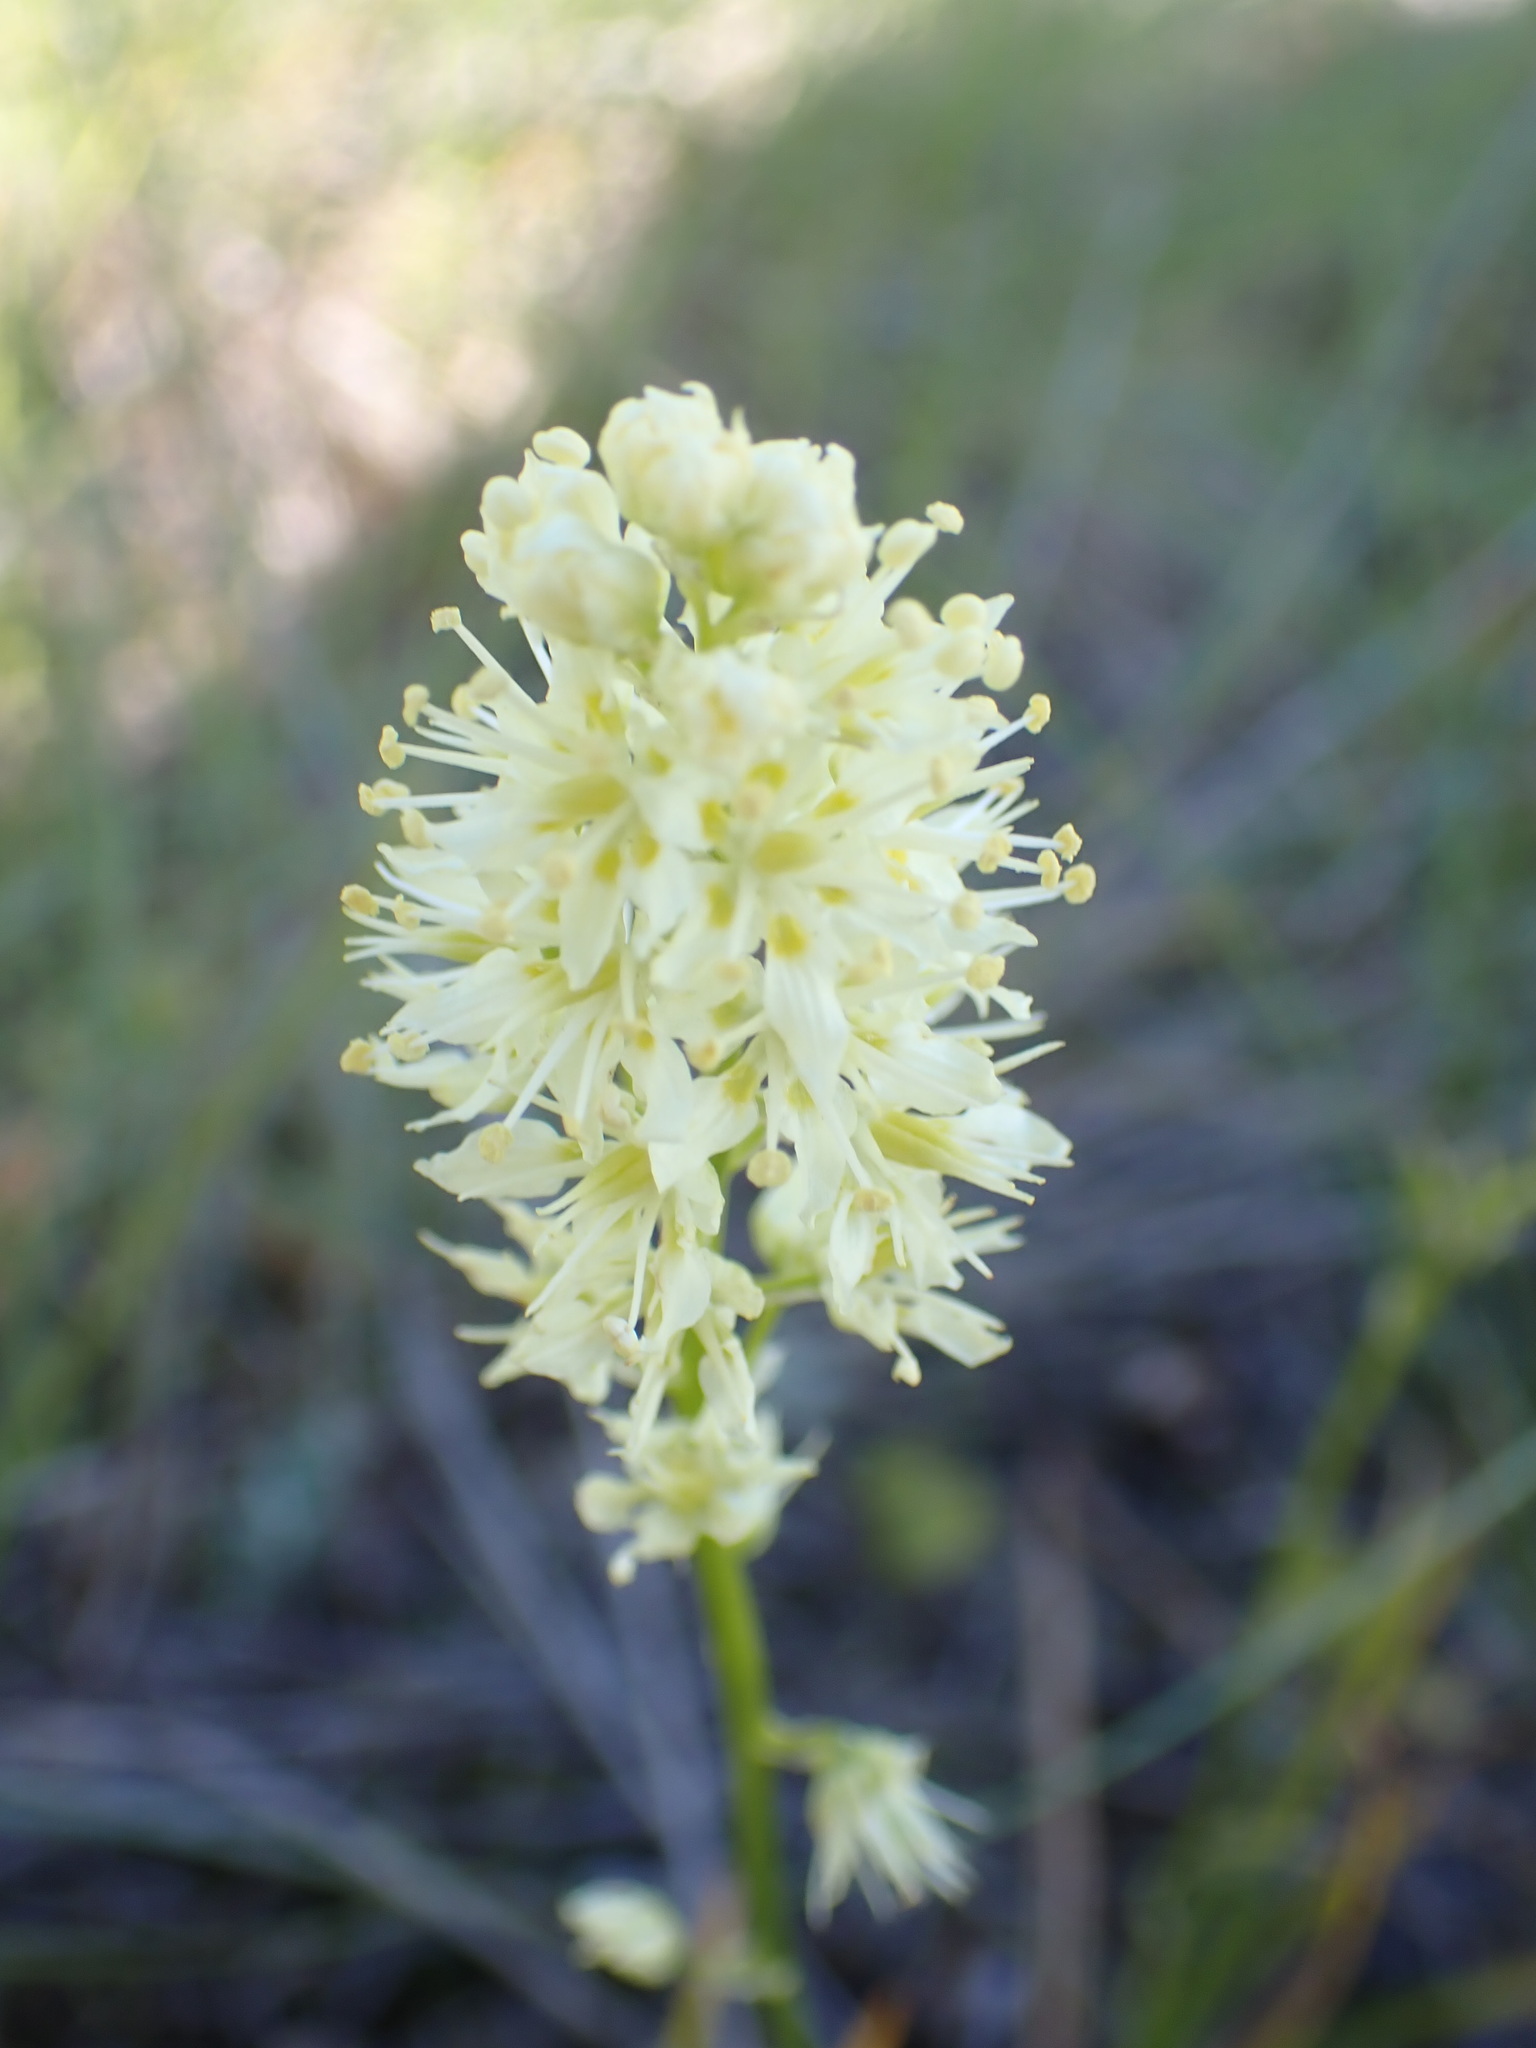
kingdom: Plantae
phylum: Tracheophyta
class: Liliopsida
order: Liliales
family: Melanthiaceae
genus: Toxicoscordion
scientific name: Toxicoscordion venenosum
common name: Meadow death camas
